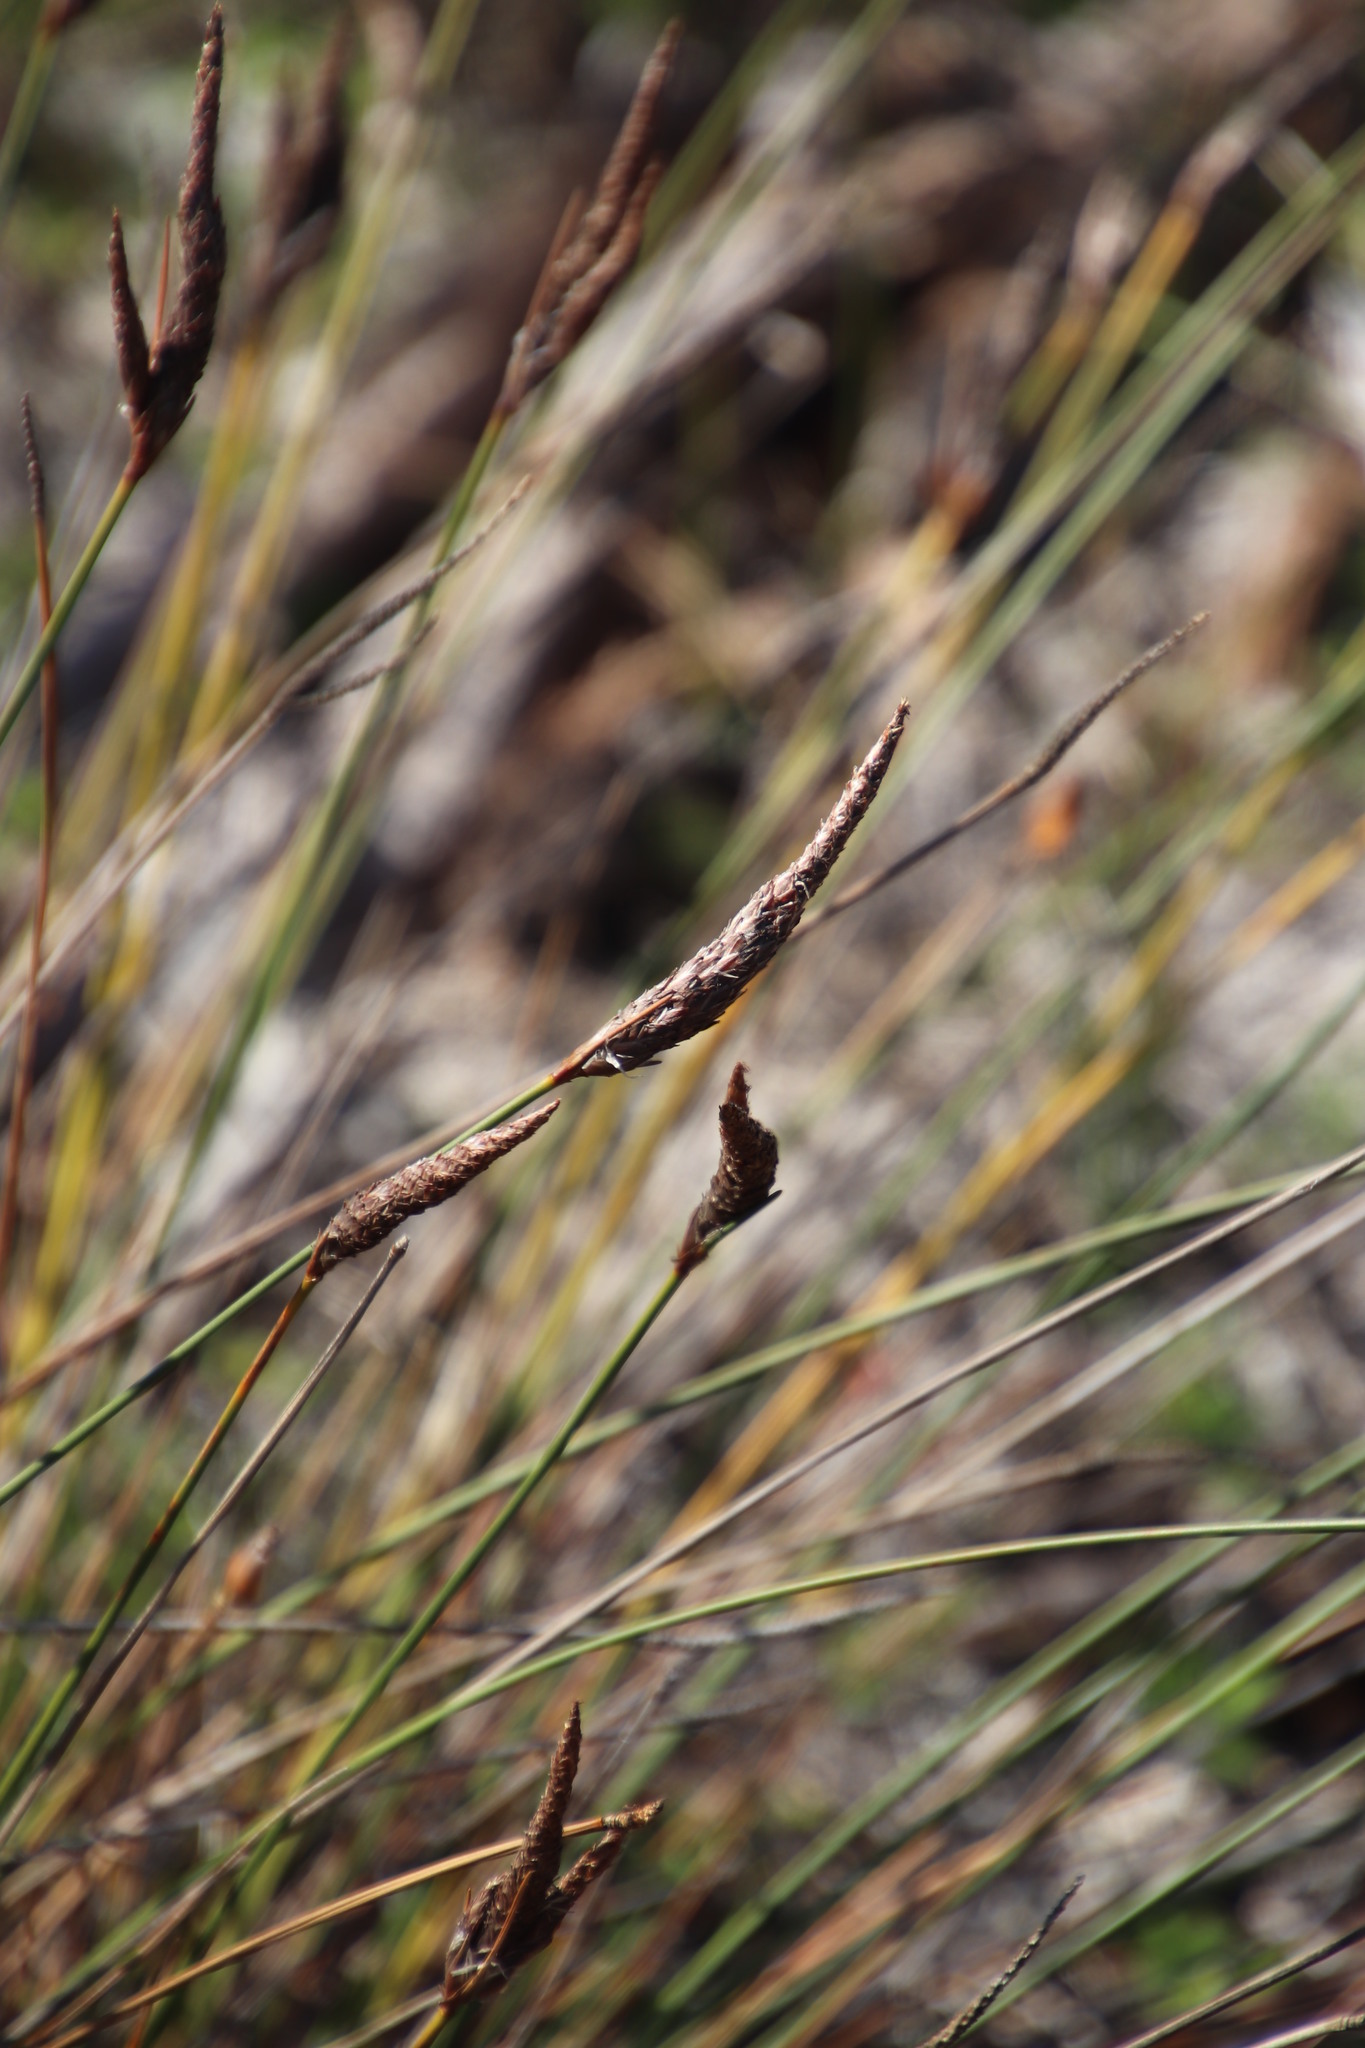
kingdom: Plantae
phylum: Tracheophyta
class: Liliopsida
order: Poales
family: Cyperaceae
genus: Ficinia
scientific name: Ficinia deusta
